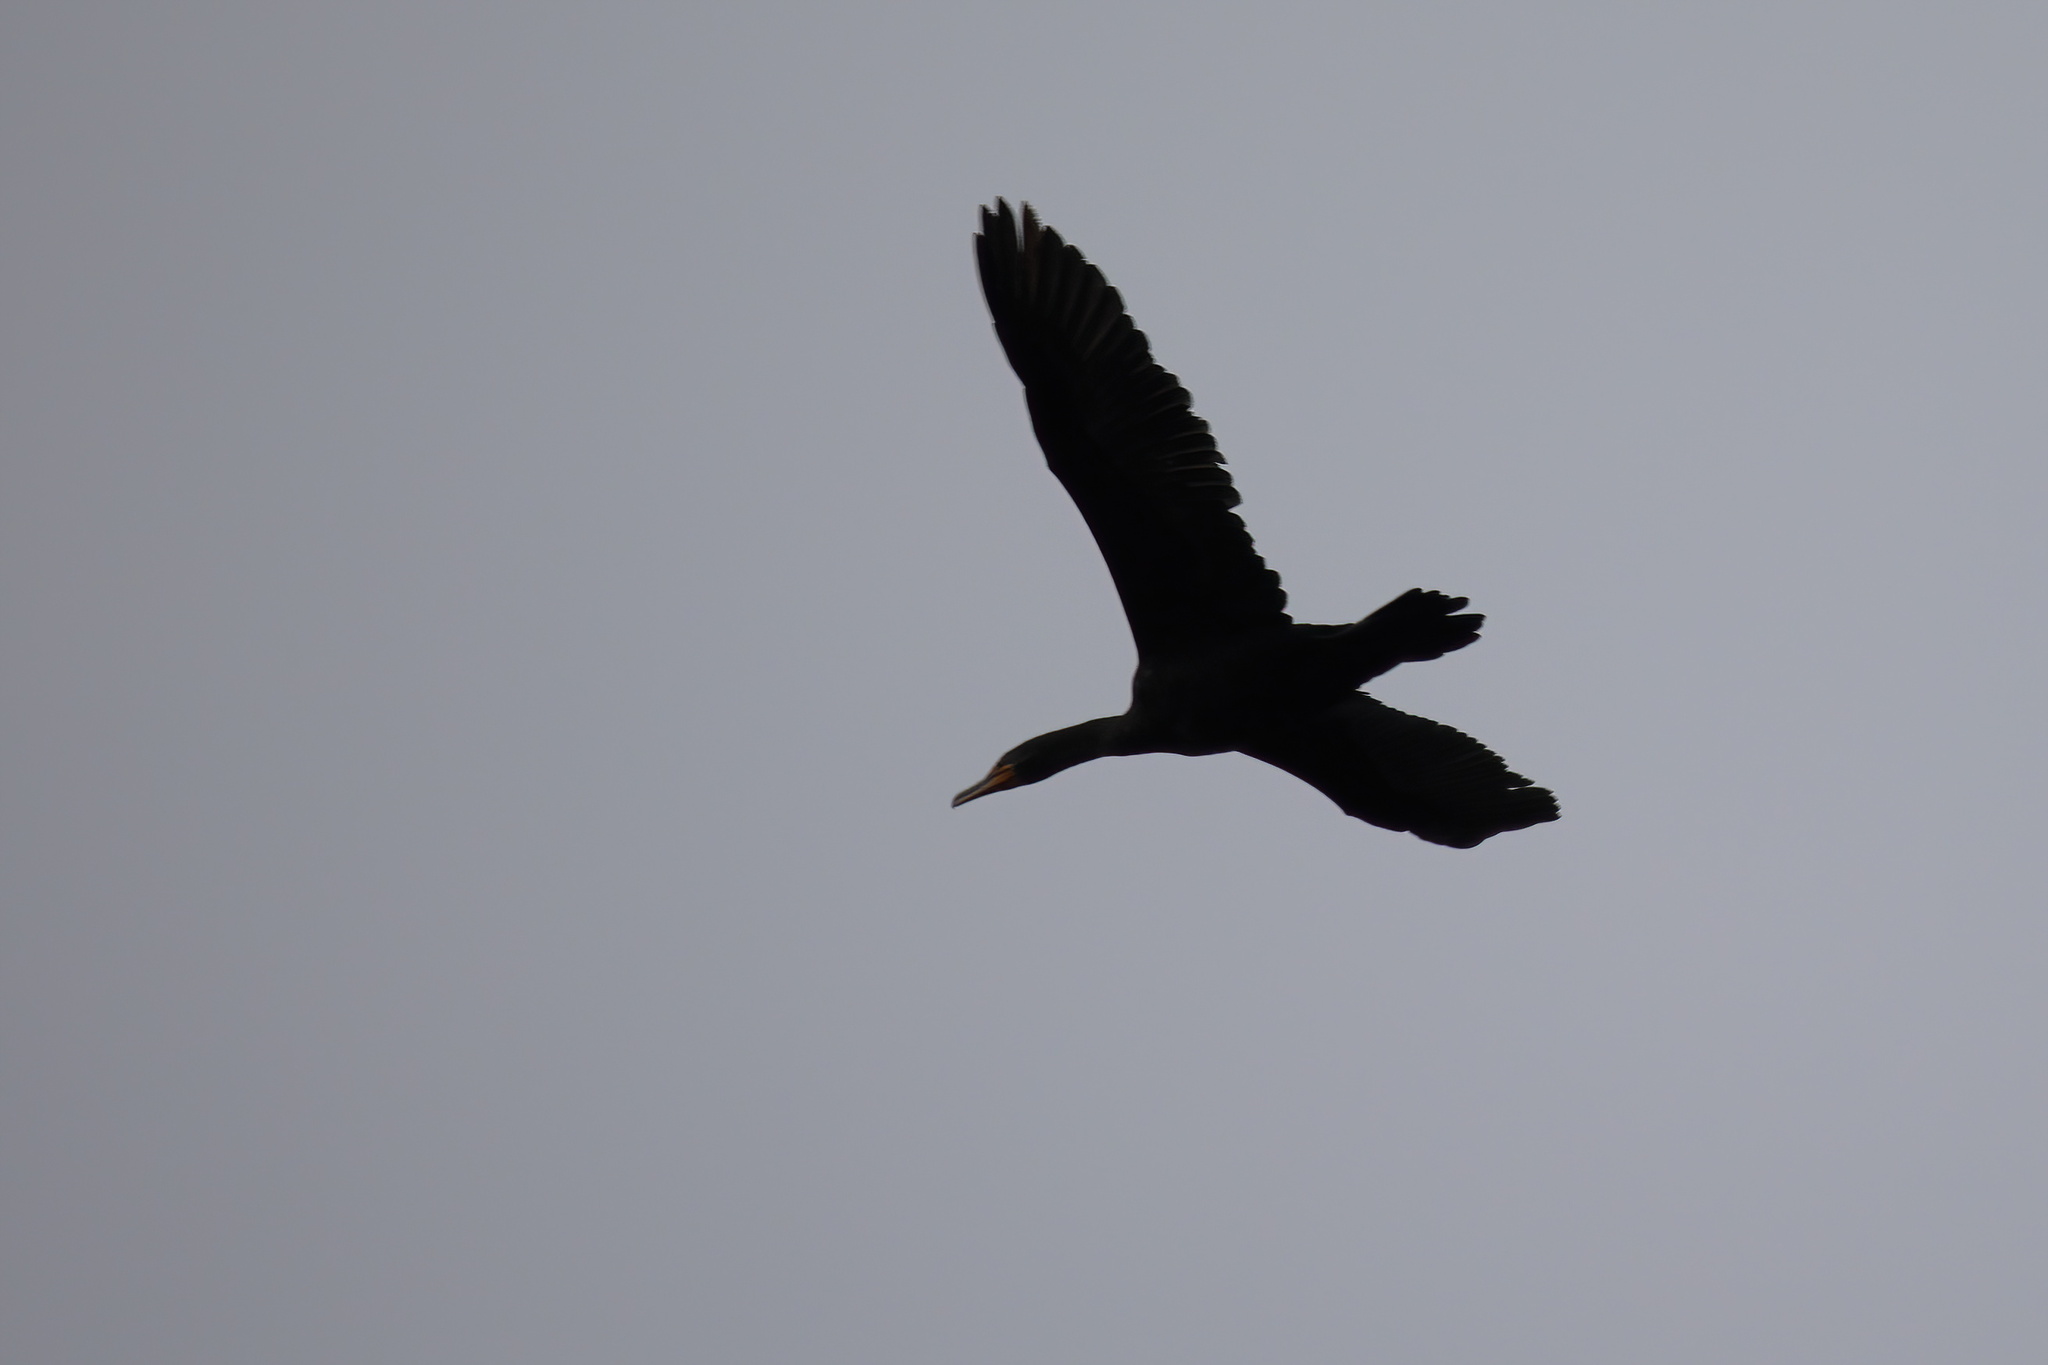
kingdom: Animalia
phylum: Chordata
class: Aves
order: Suliformes
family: Phalacrocoracidae
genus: Phalacrocorax
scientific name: Phalacrocorax auritus
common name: Double-crested cormorant
